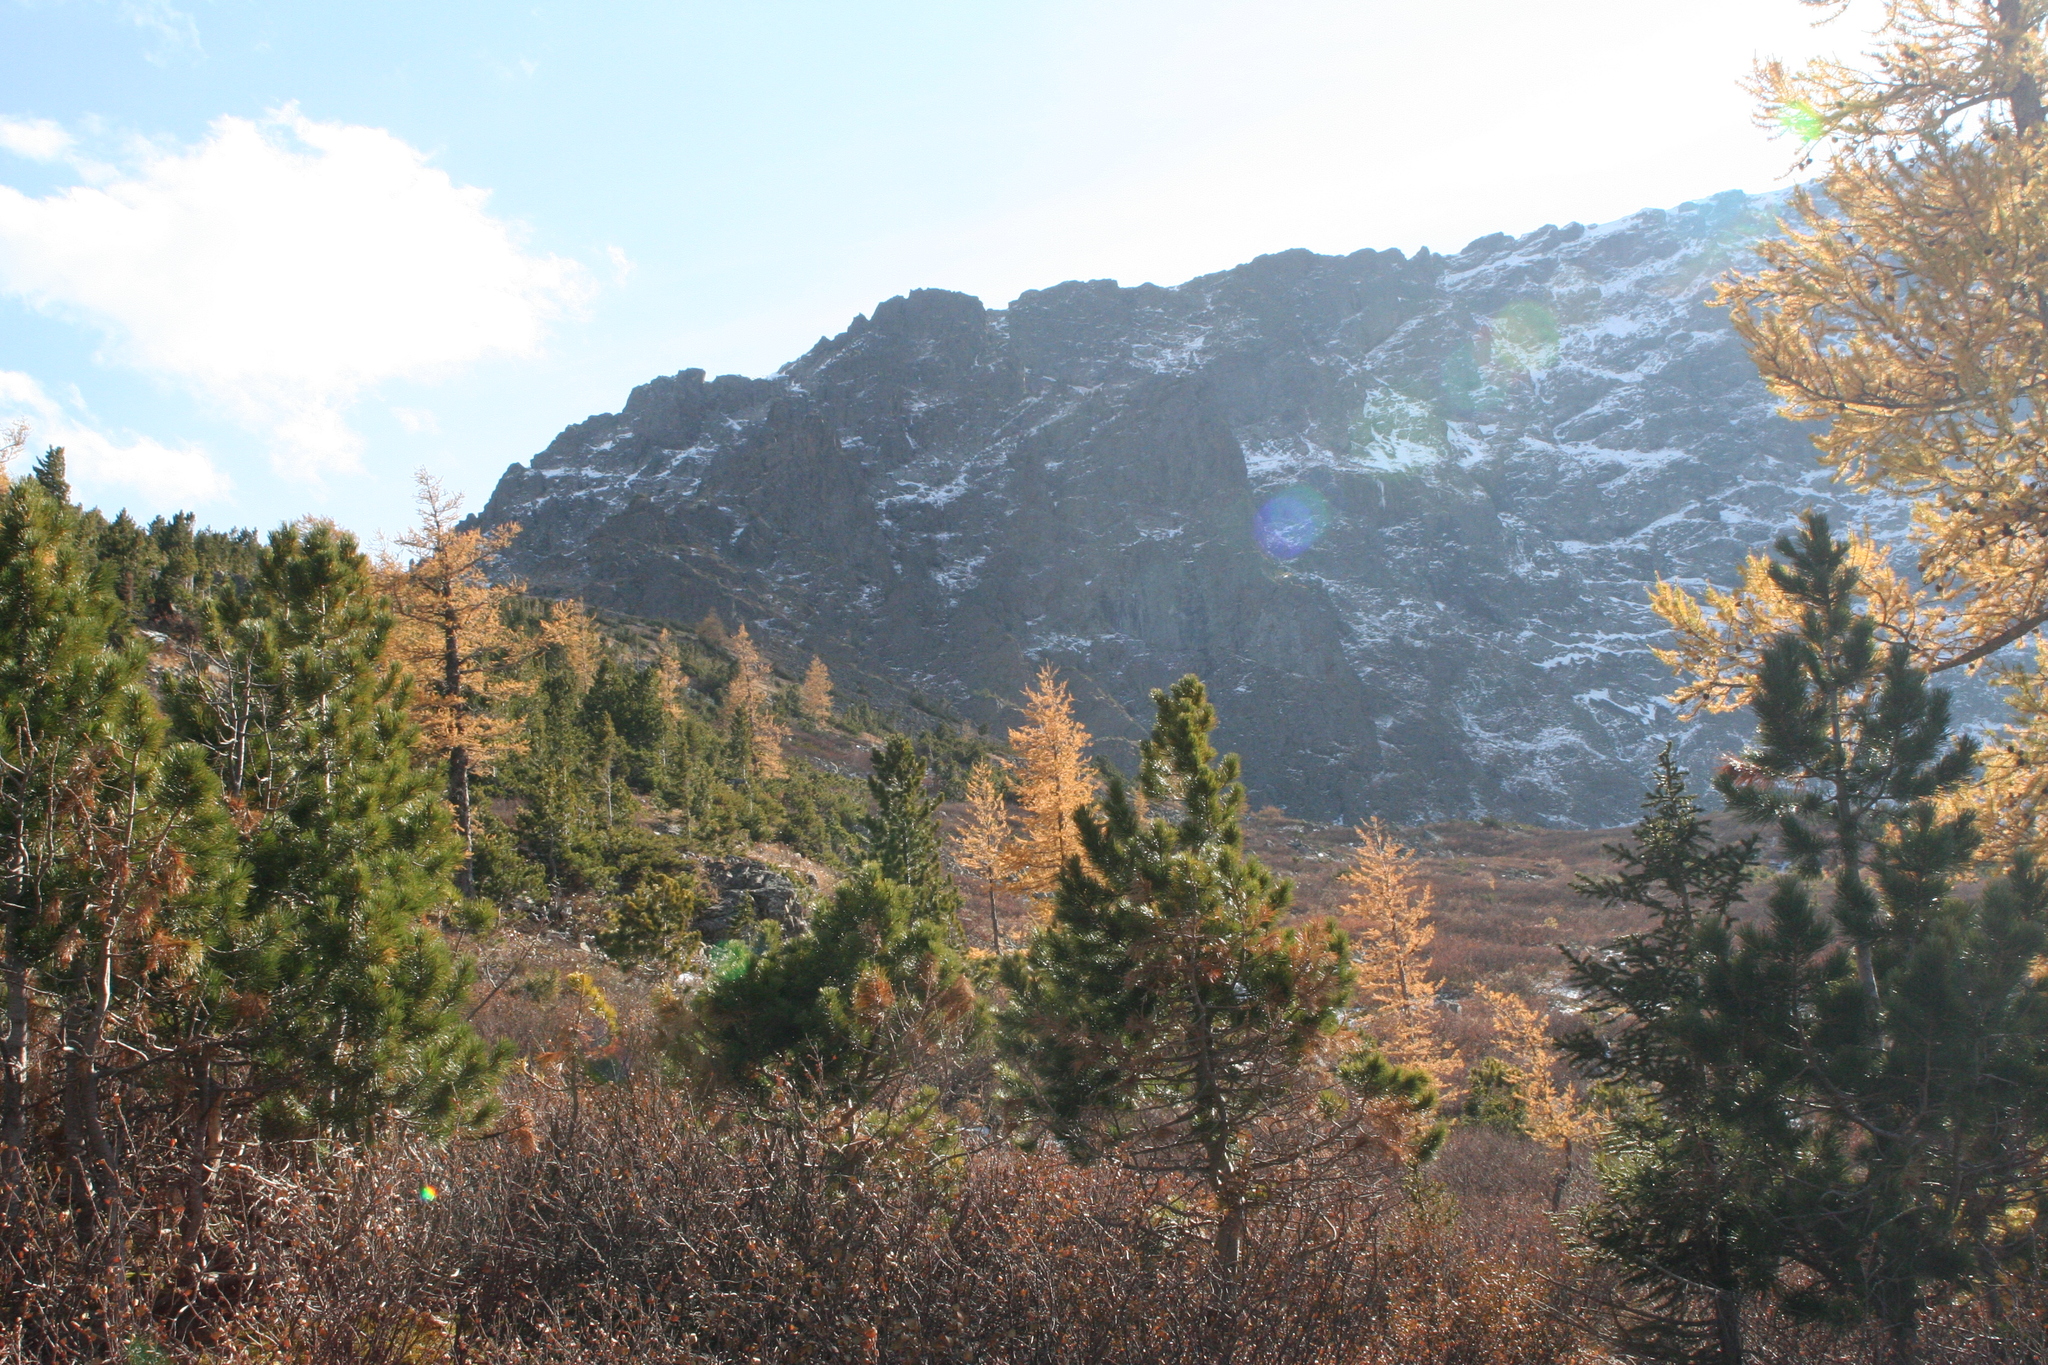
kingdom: Plantae
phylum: Tracheophyta
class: Pinopsida
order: Pinales
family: Pinaceae
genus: Larix
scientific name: Larix sibirica
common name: Siberian larch
